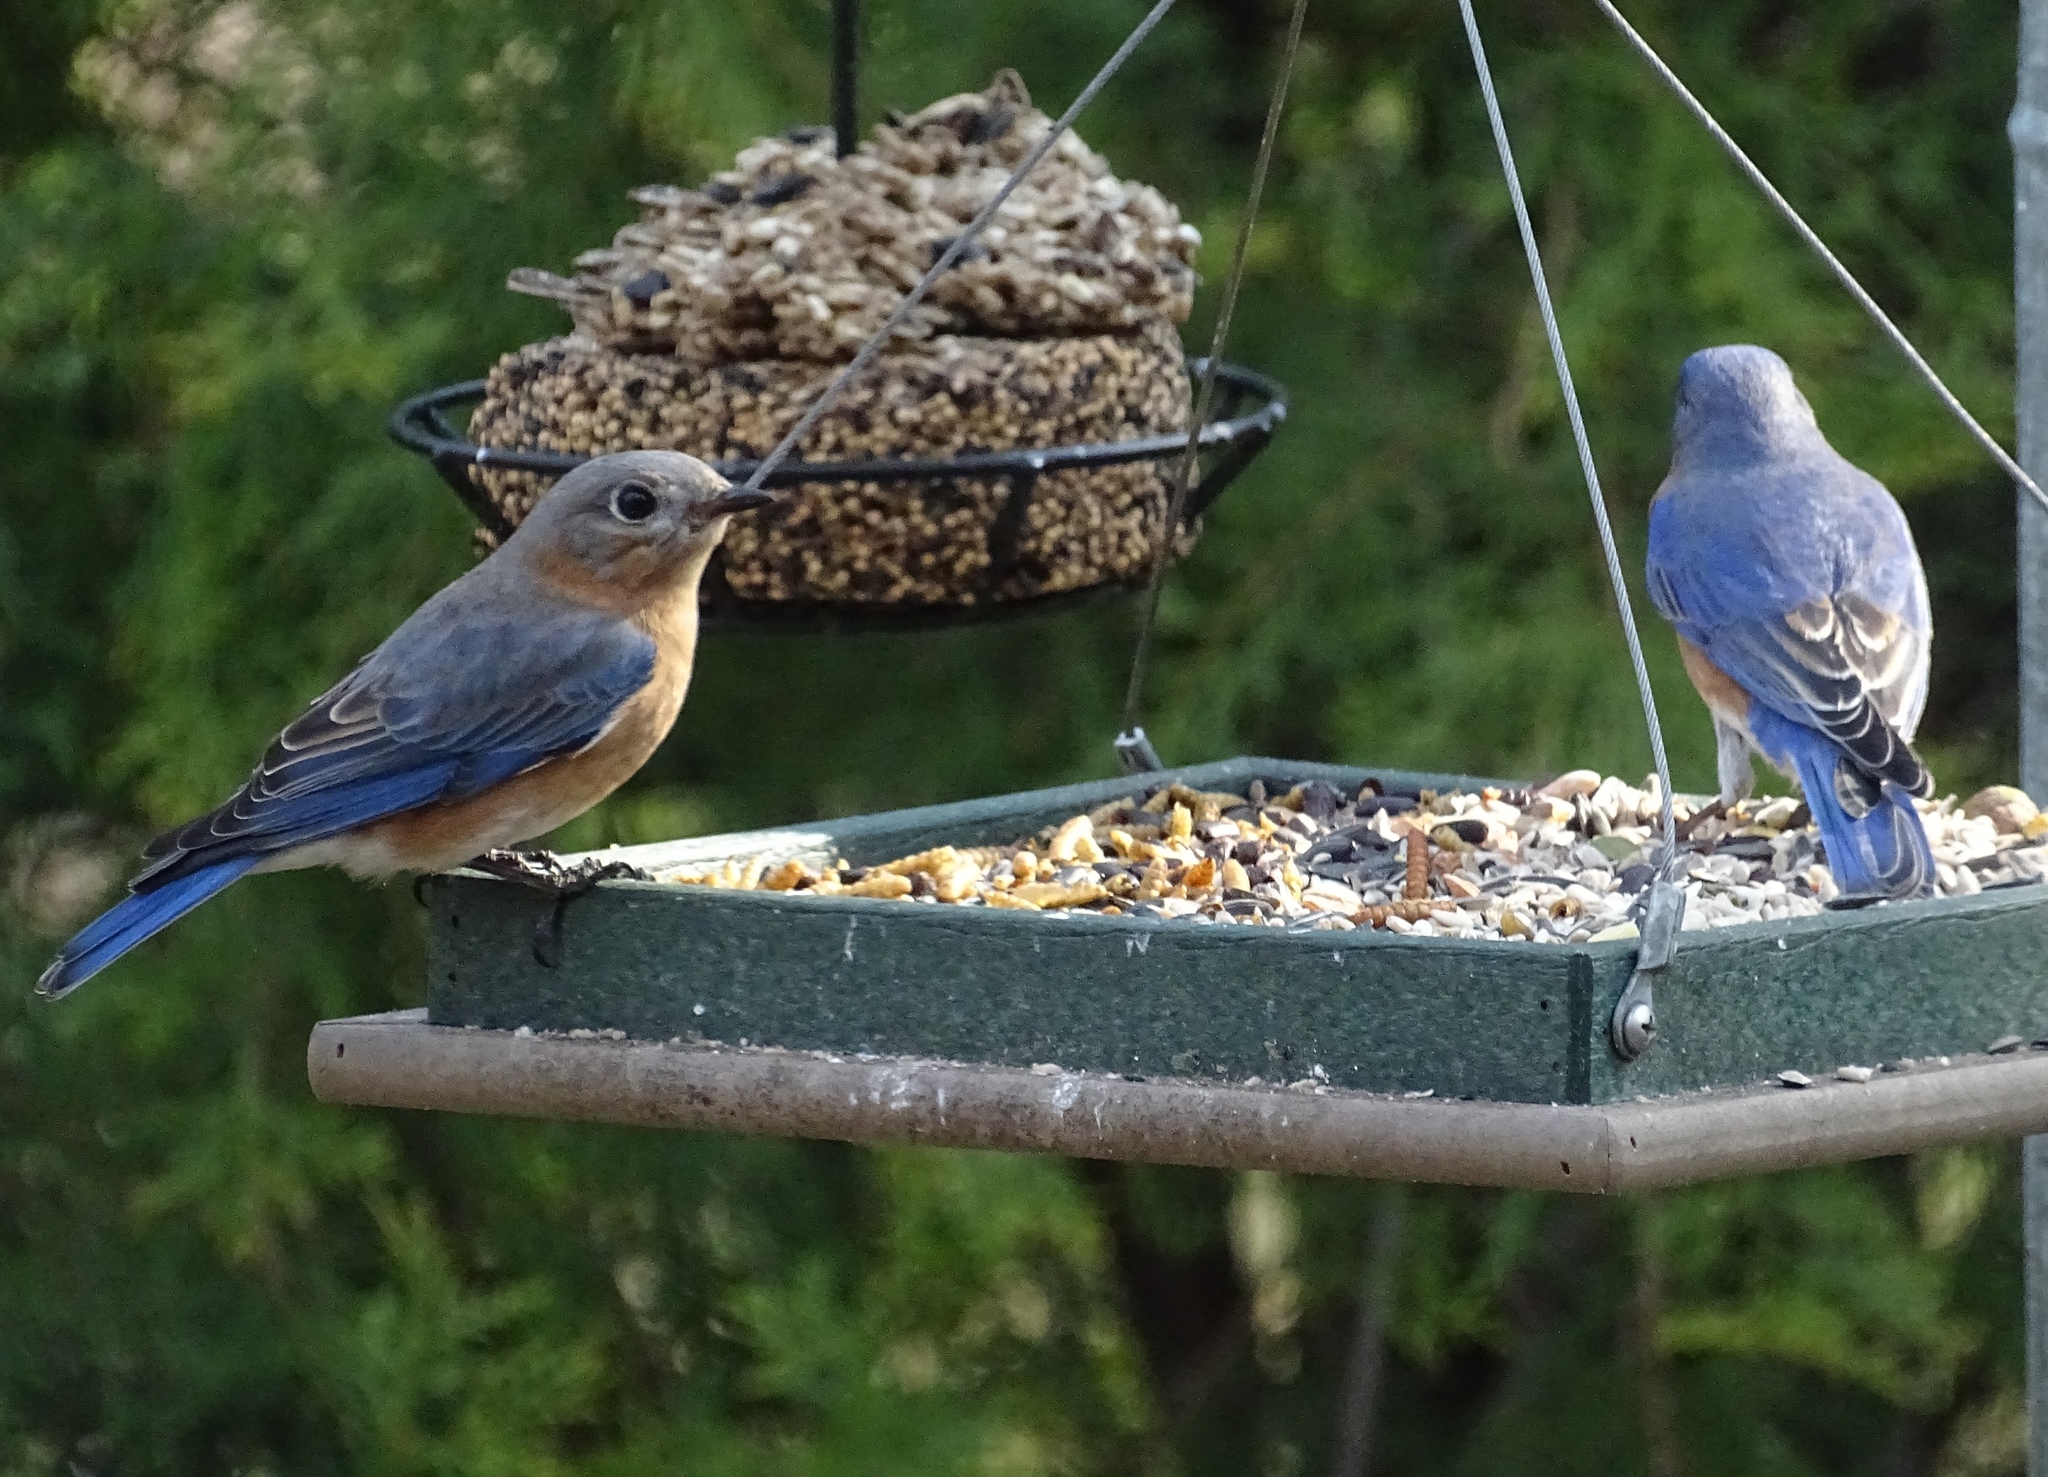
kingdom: Animalia
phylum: Chordata
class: Aves
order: Passeriformes
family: Turdidae
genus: Sialia
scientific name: Sialia sialis
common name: Eastern bluebird
